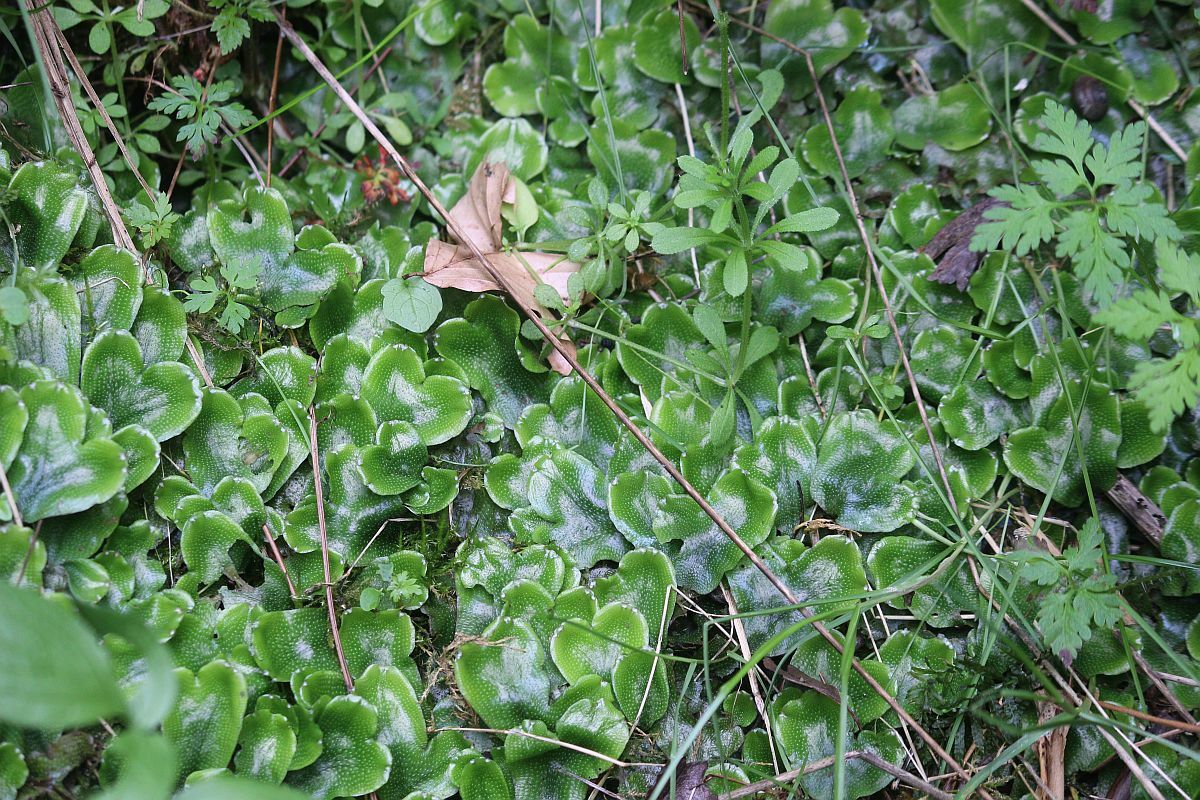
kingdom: Plantae
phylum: Marchantiophyta
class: Marchantiopsida
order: Marchantiales
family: Conocephalaceae
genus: Conocephalum
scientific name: Conocephalum conicum
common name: Great scented liverwort
